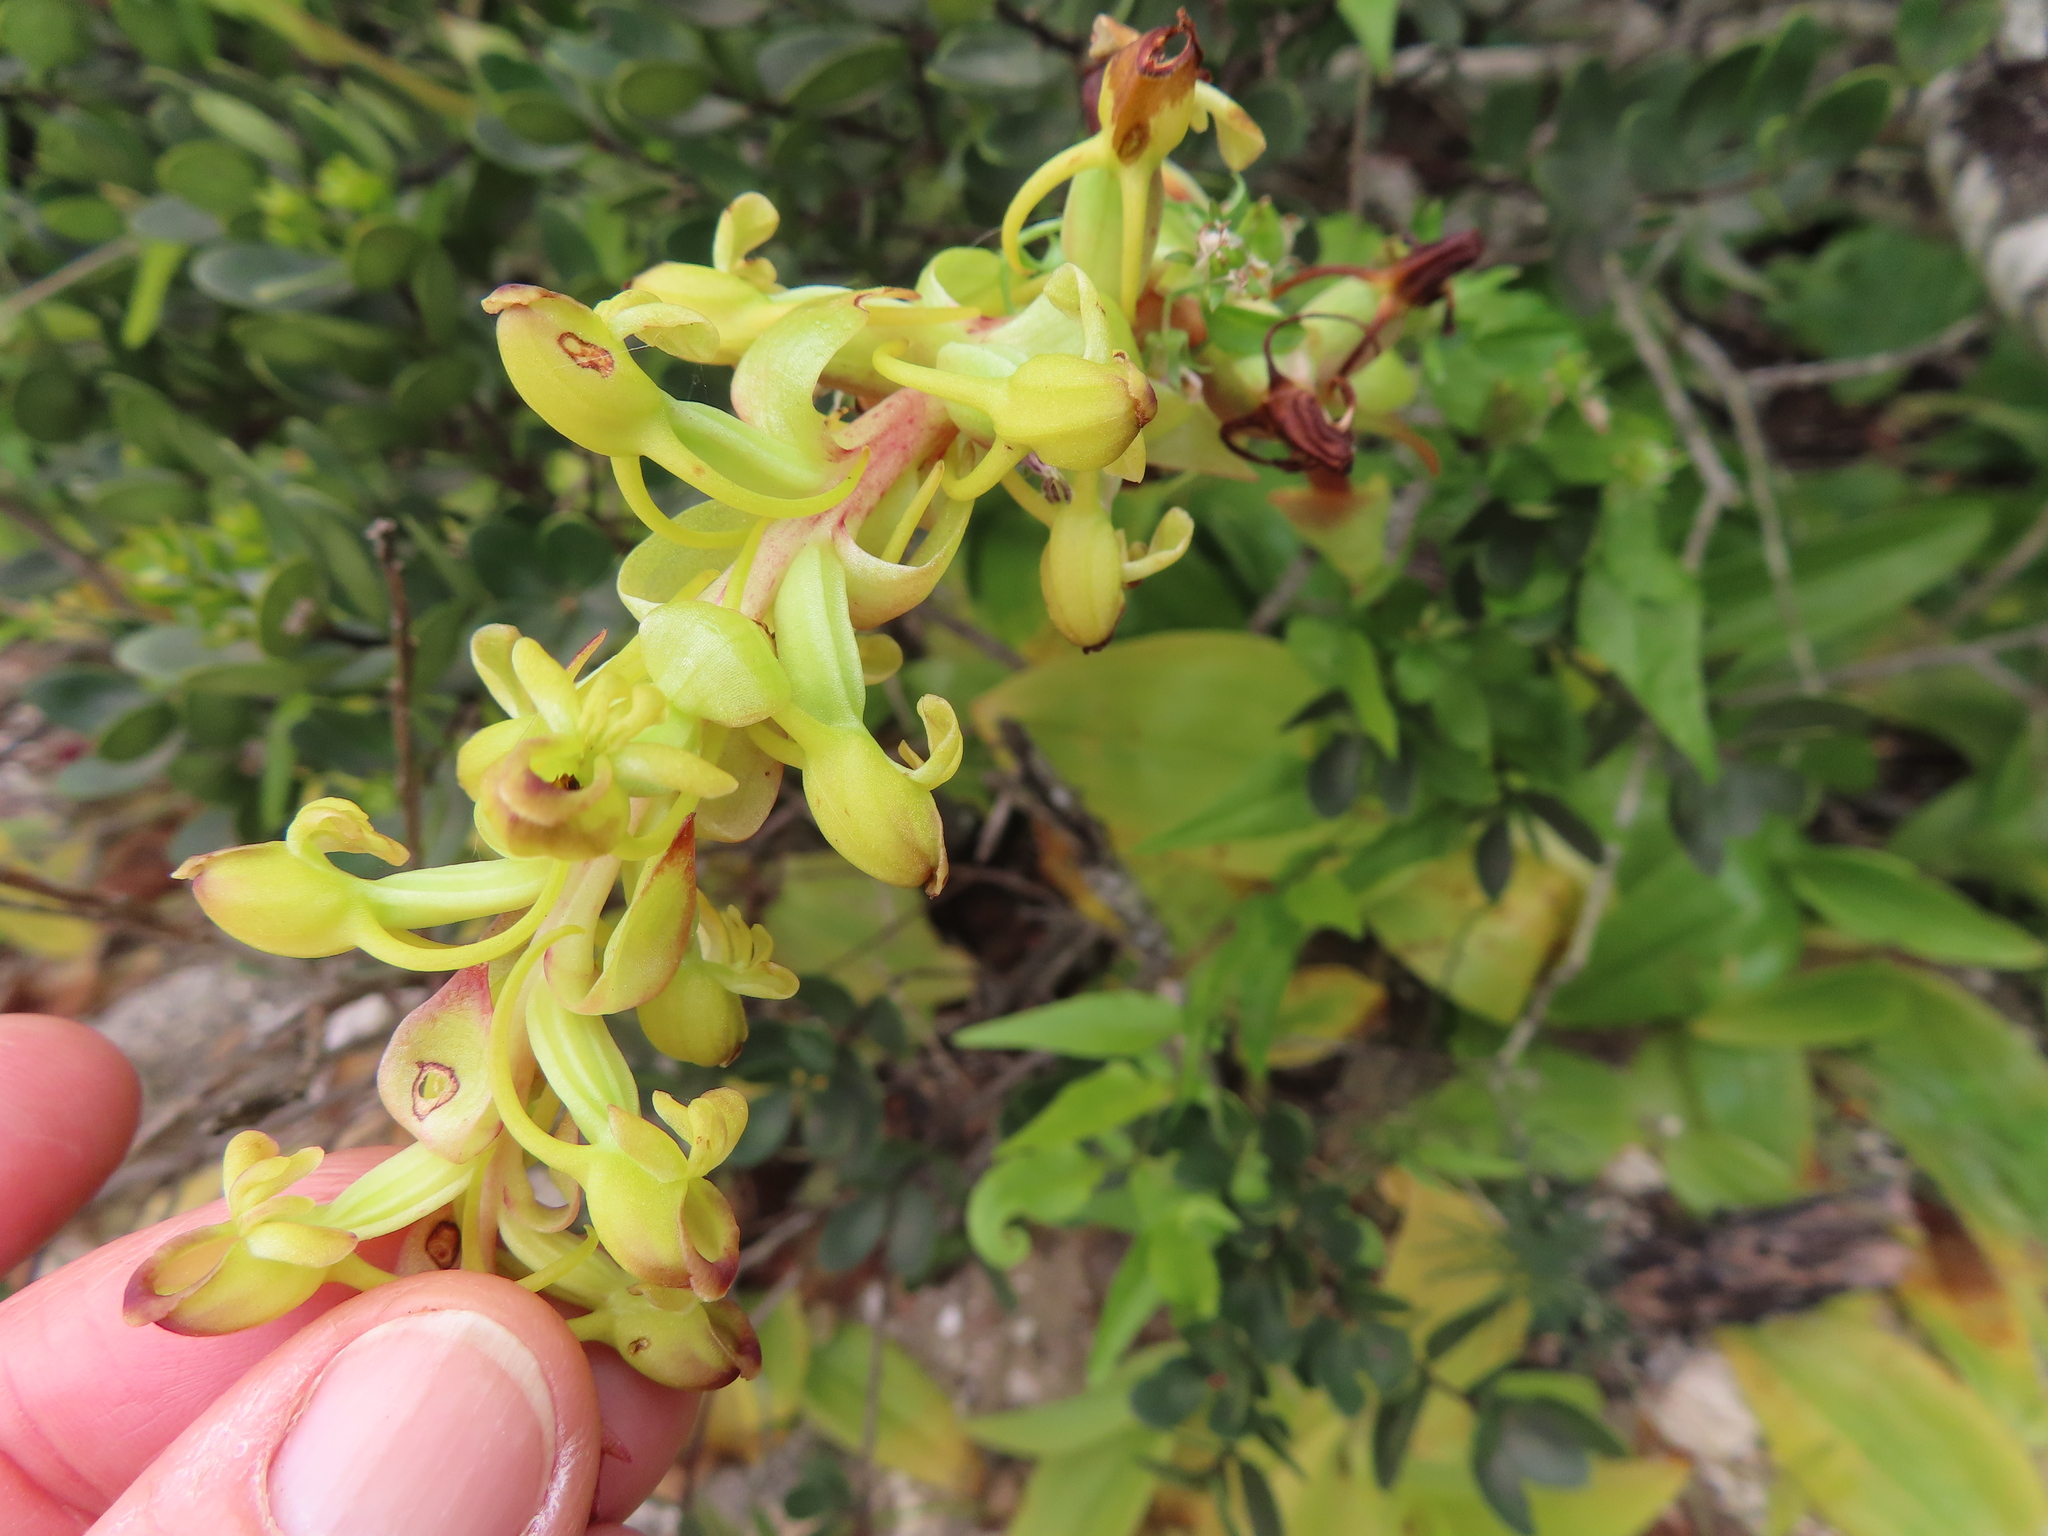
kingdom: Plantae
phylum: Tracheophyta
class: Liliopsida
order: Asparagales
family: Orchidaceae
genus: Satyrium
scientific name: Satyrium odorum
